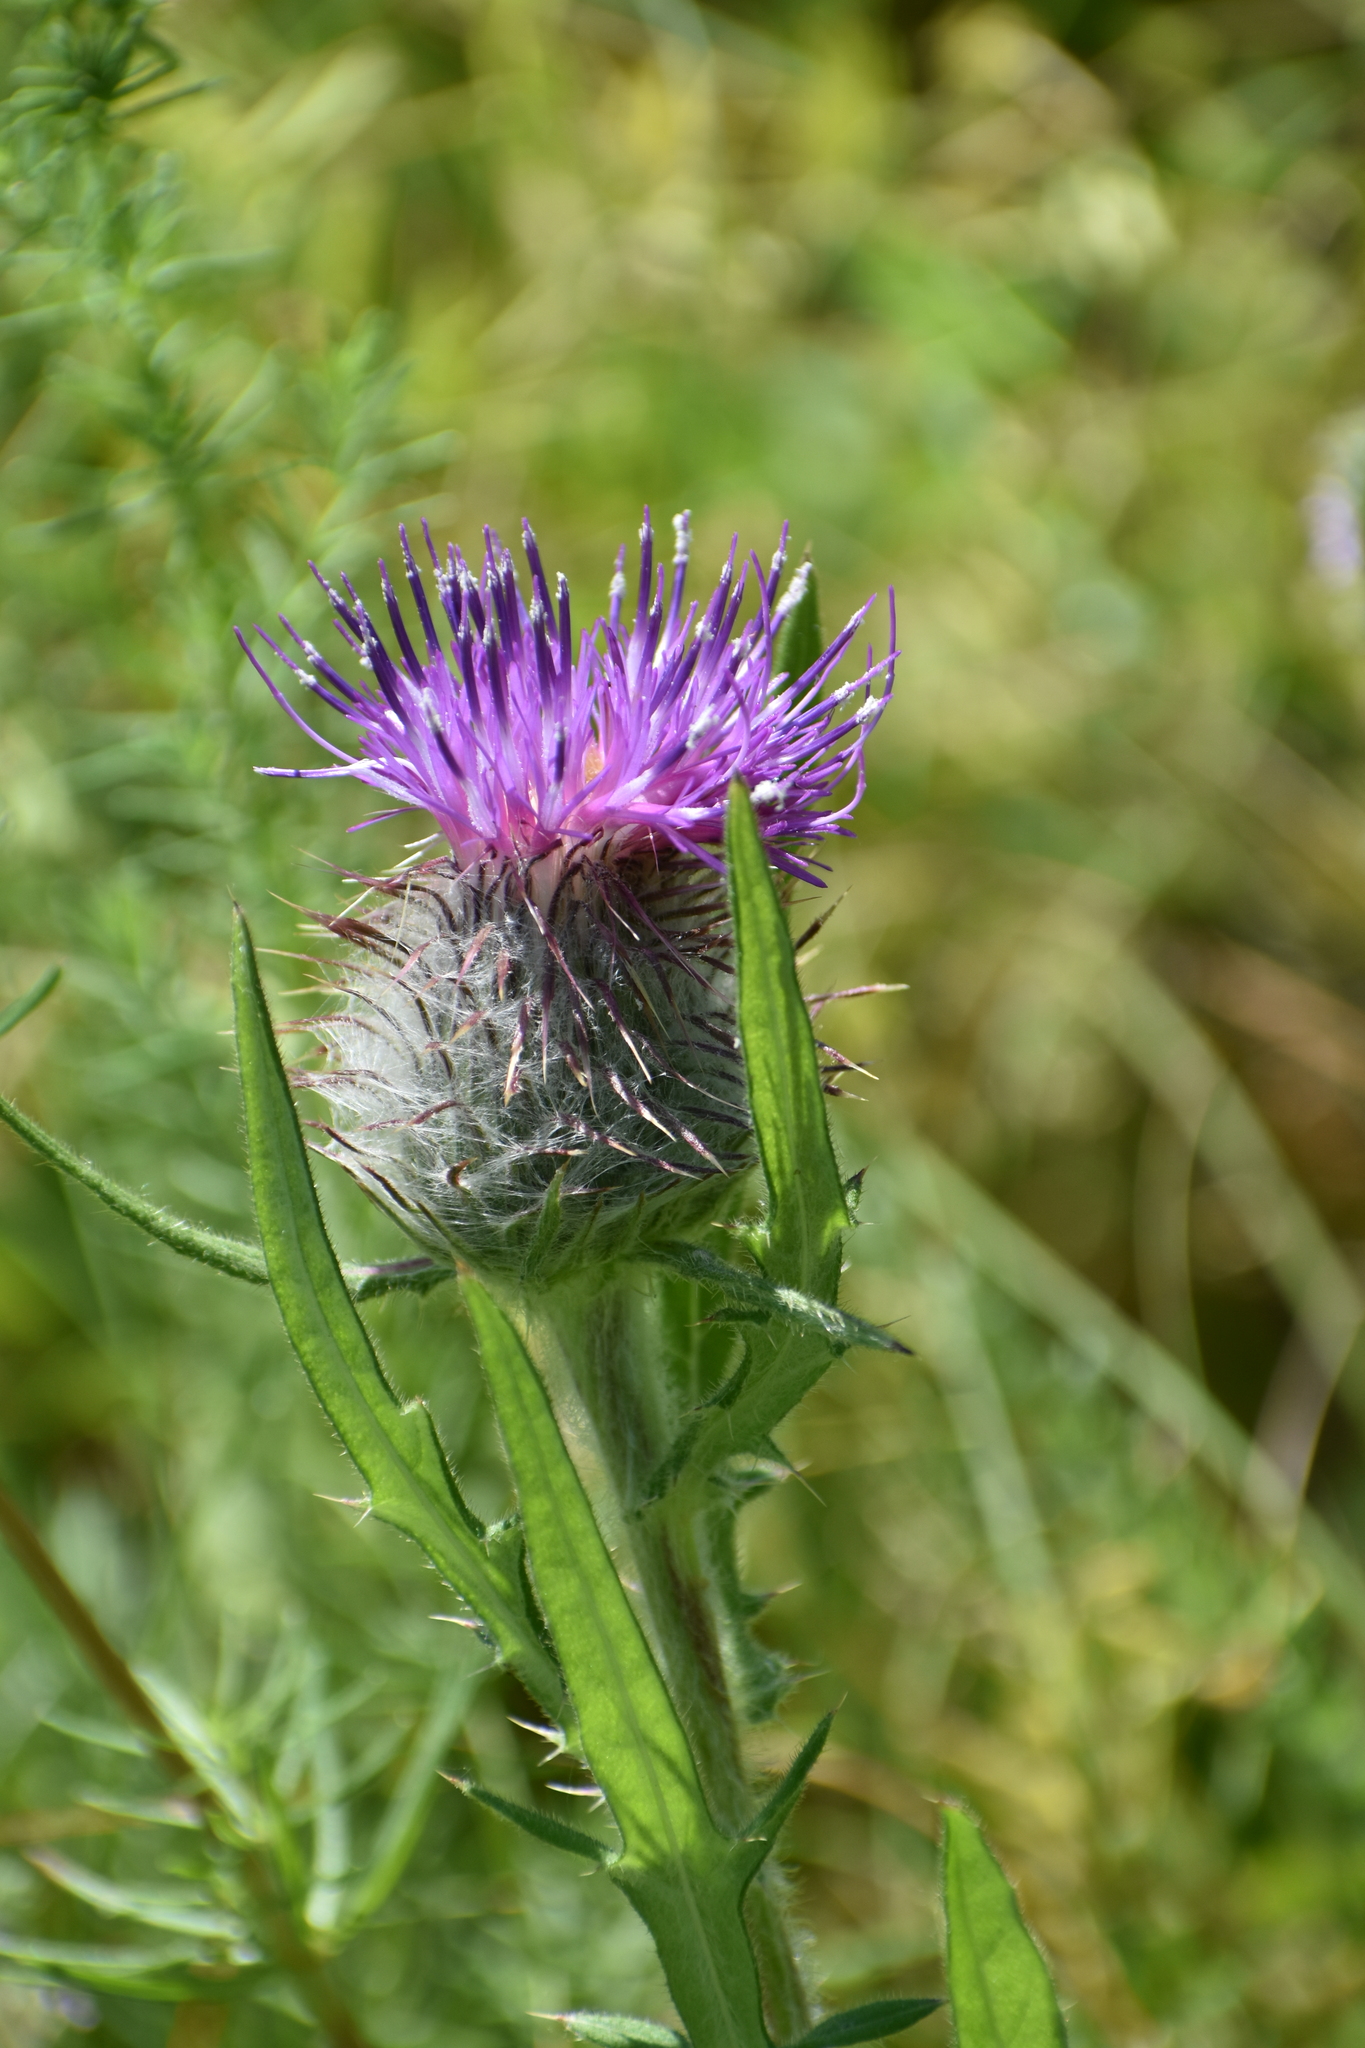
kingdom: Plantae
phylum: Tracheophyta
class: Magnoliopsida
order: Asterales
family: Asteraceae
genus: Lophiolepis
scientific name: Lophiolepis decussata
